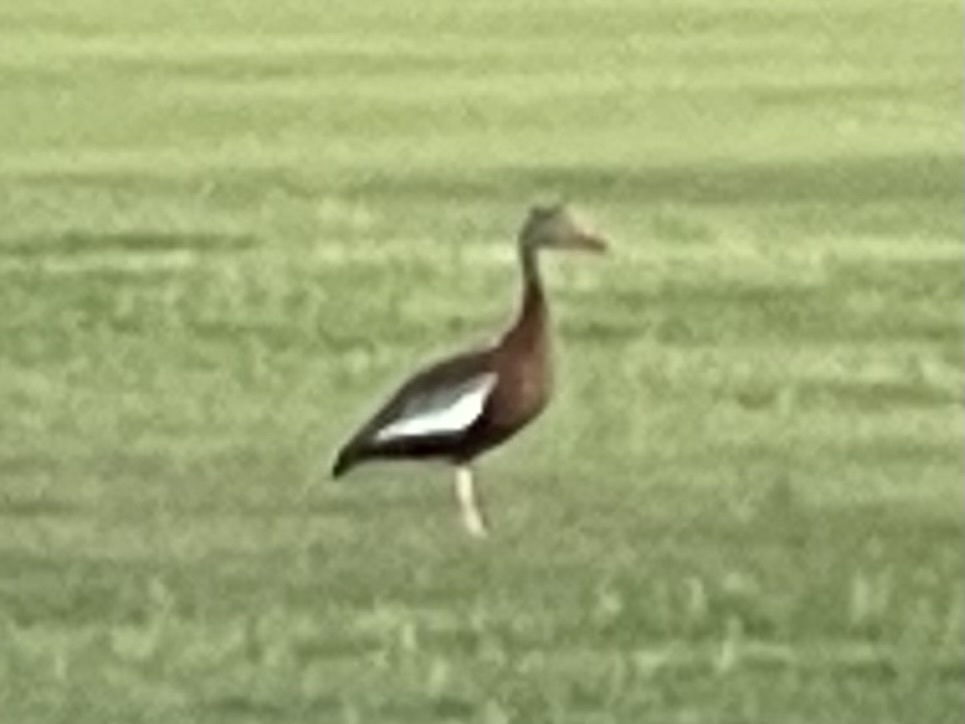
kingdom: Animalia
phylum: Chordata
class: Aves
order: Anseriformes
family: Anatidae
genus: Dendrocygna
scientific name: Dendrocygna autumnalis
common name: Black-bellied whistling duck
